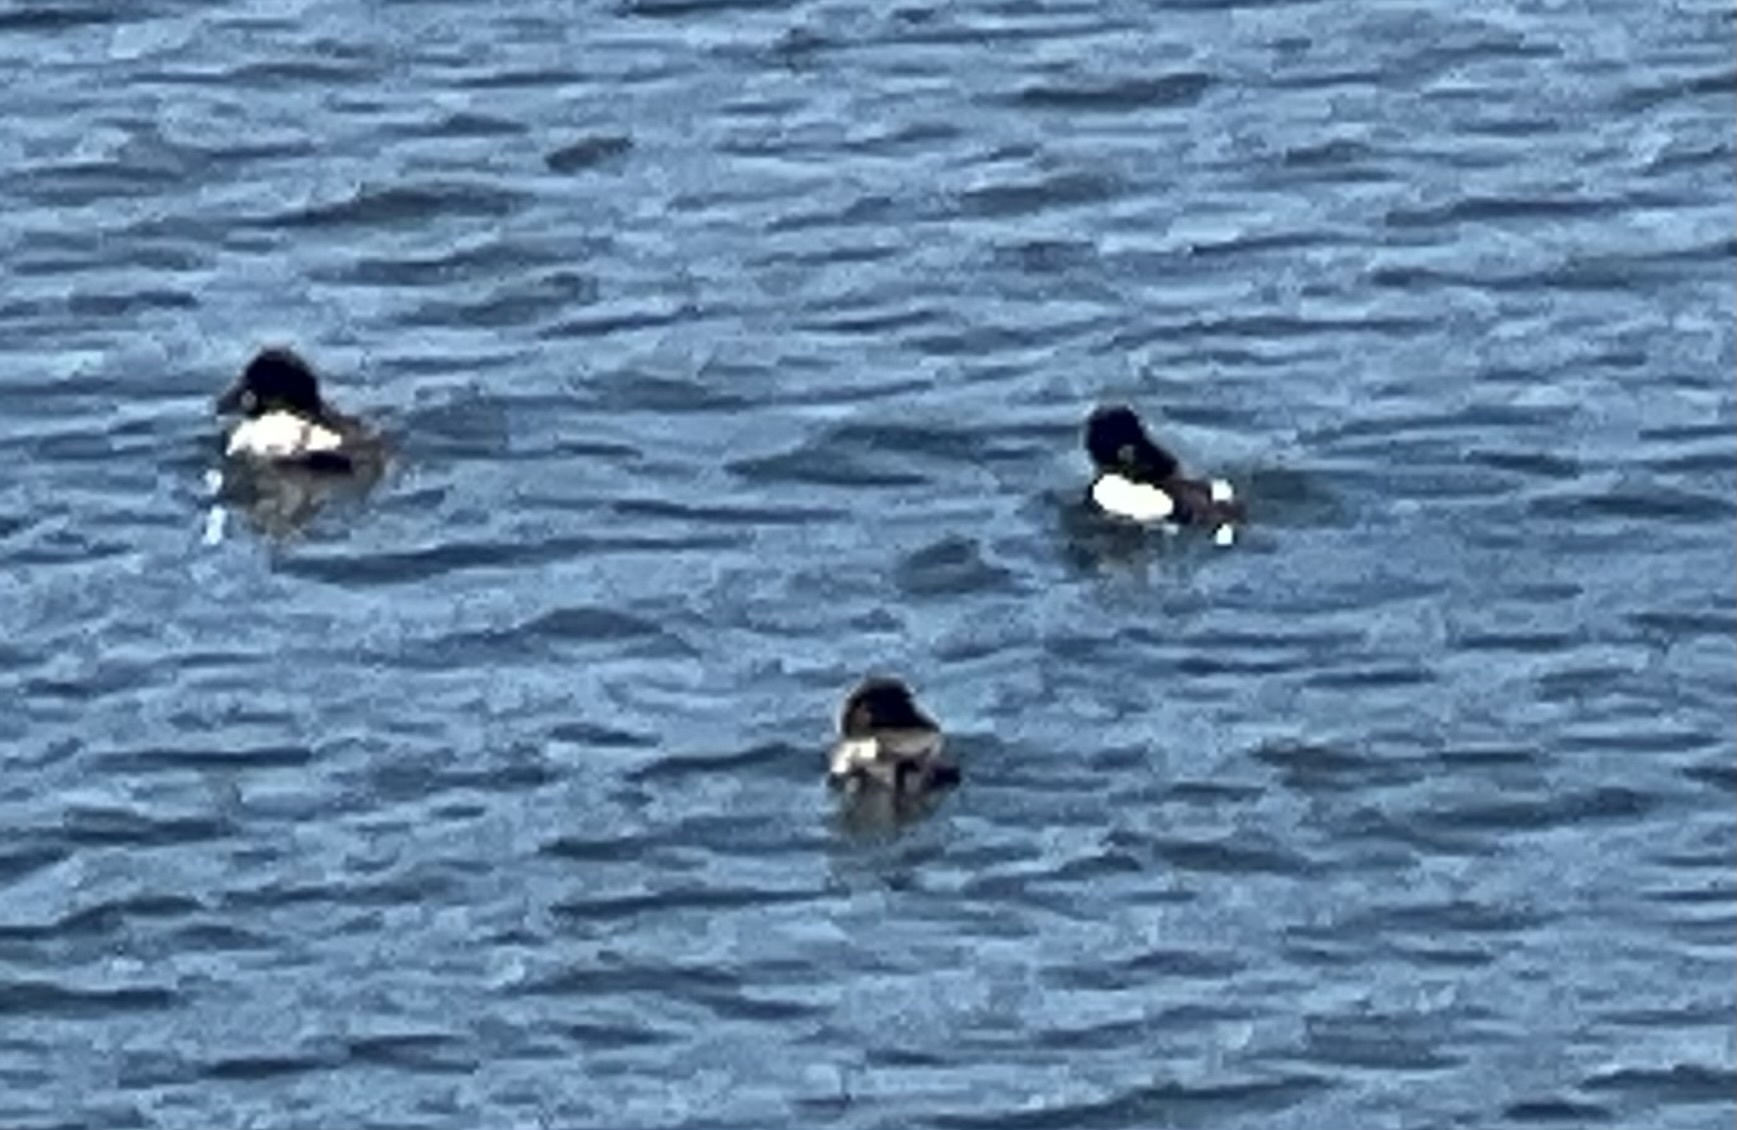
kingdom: Animalia
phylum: Chordata
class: Aves
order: Anseriformes
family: Anatidae
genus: Bucephala
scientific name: Bucephala clangula
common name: Common goldeneye
